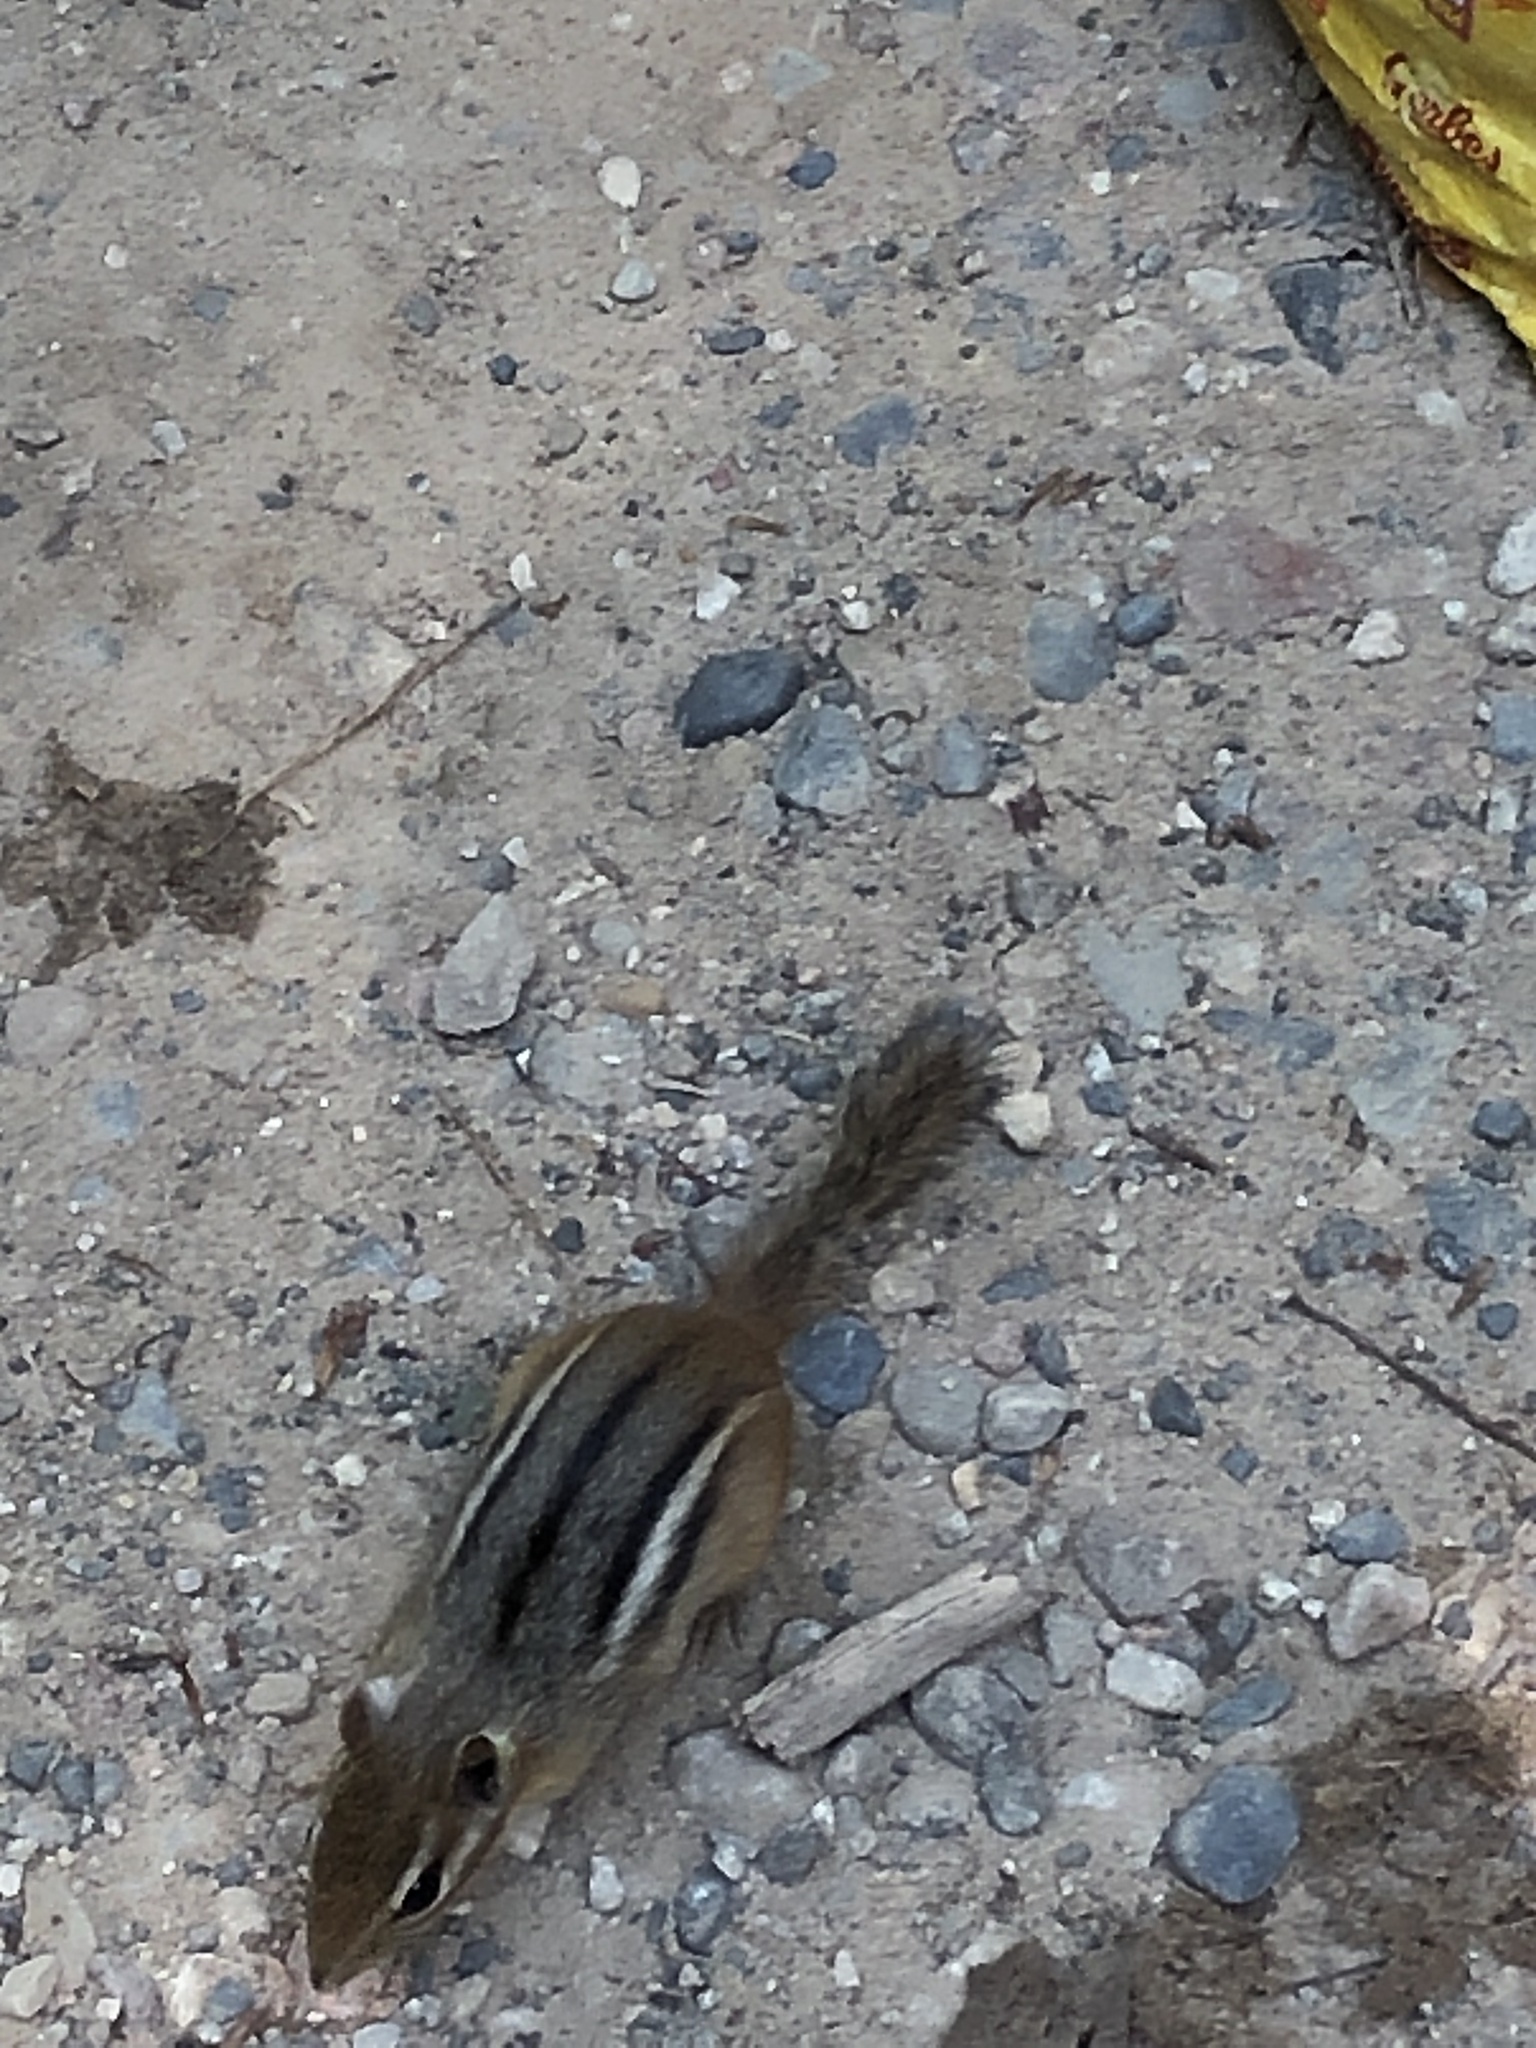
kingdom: Animalia
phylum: Chordata
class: Mammalia
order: Rodentia
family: Sciuridae
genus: Tamias
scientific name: Tamias striatus
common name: Eastern chipmunk
